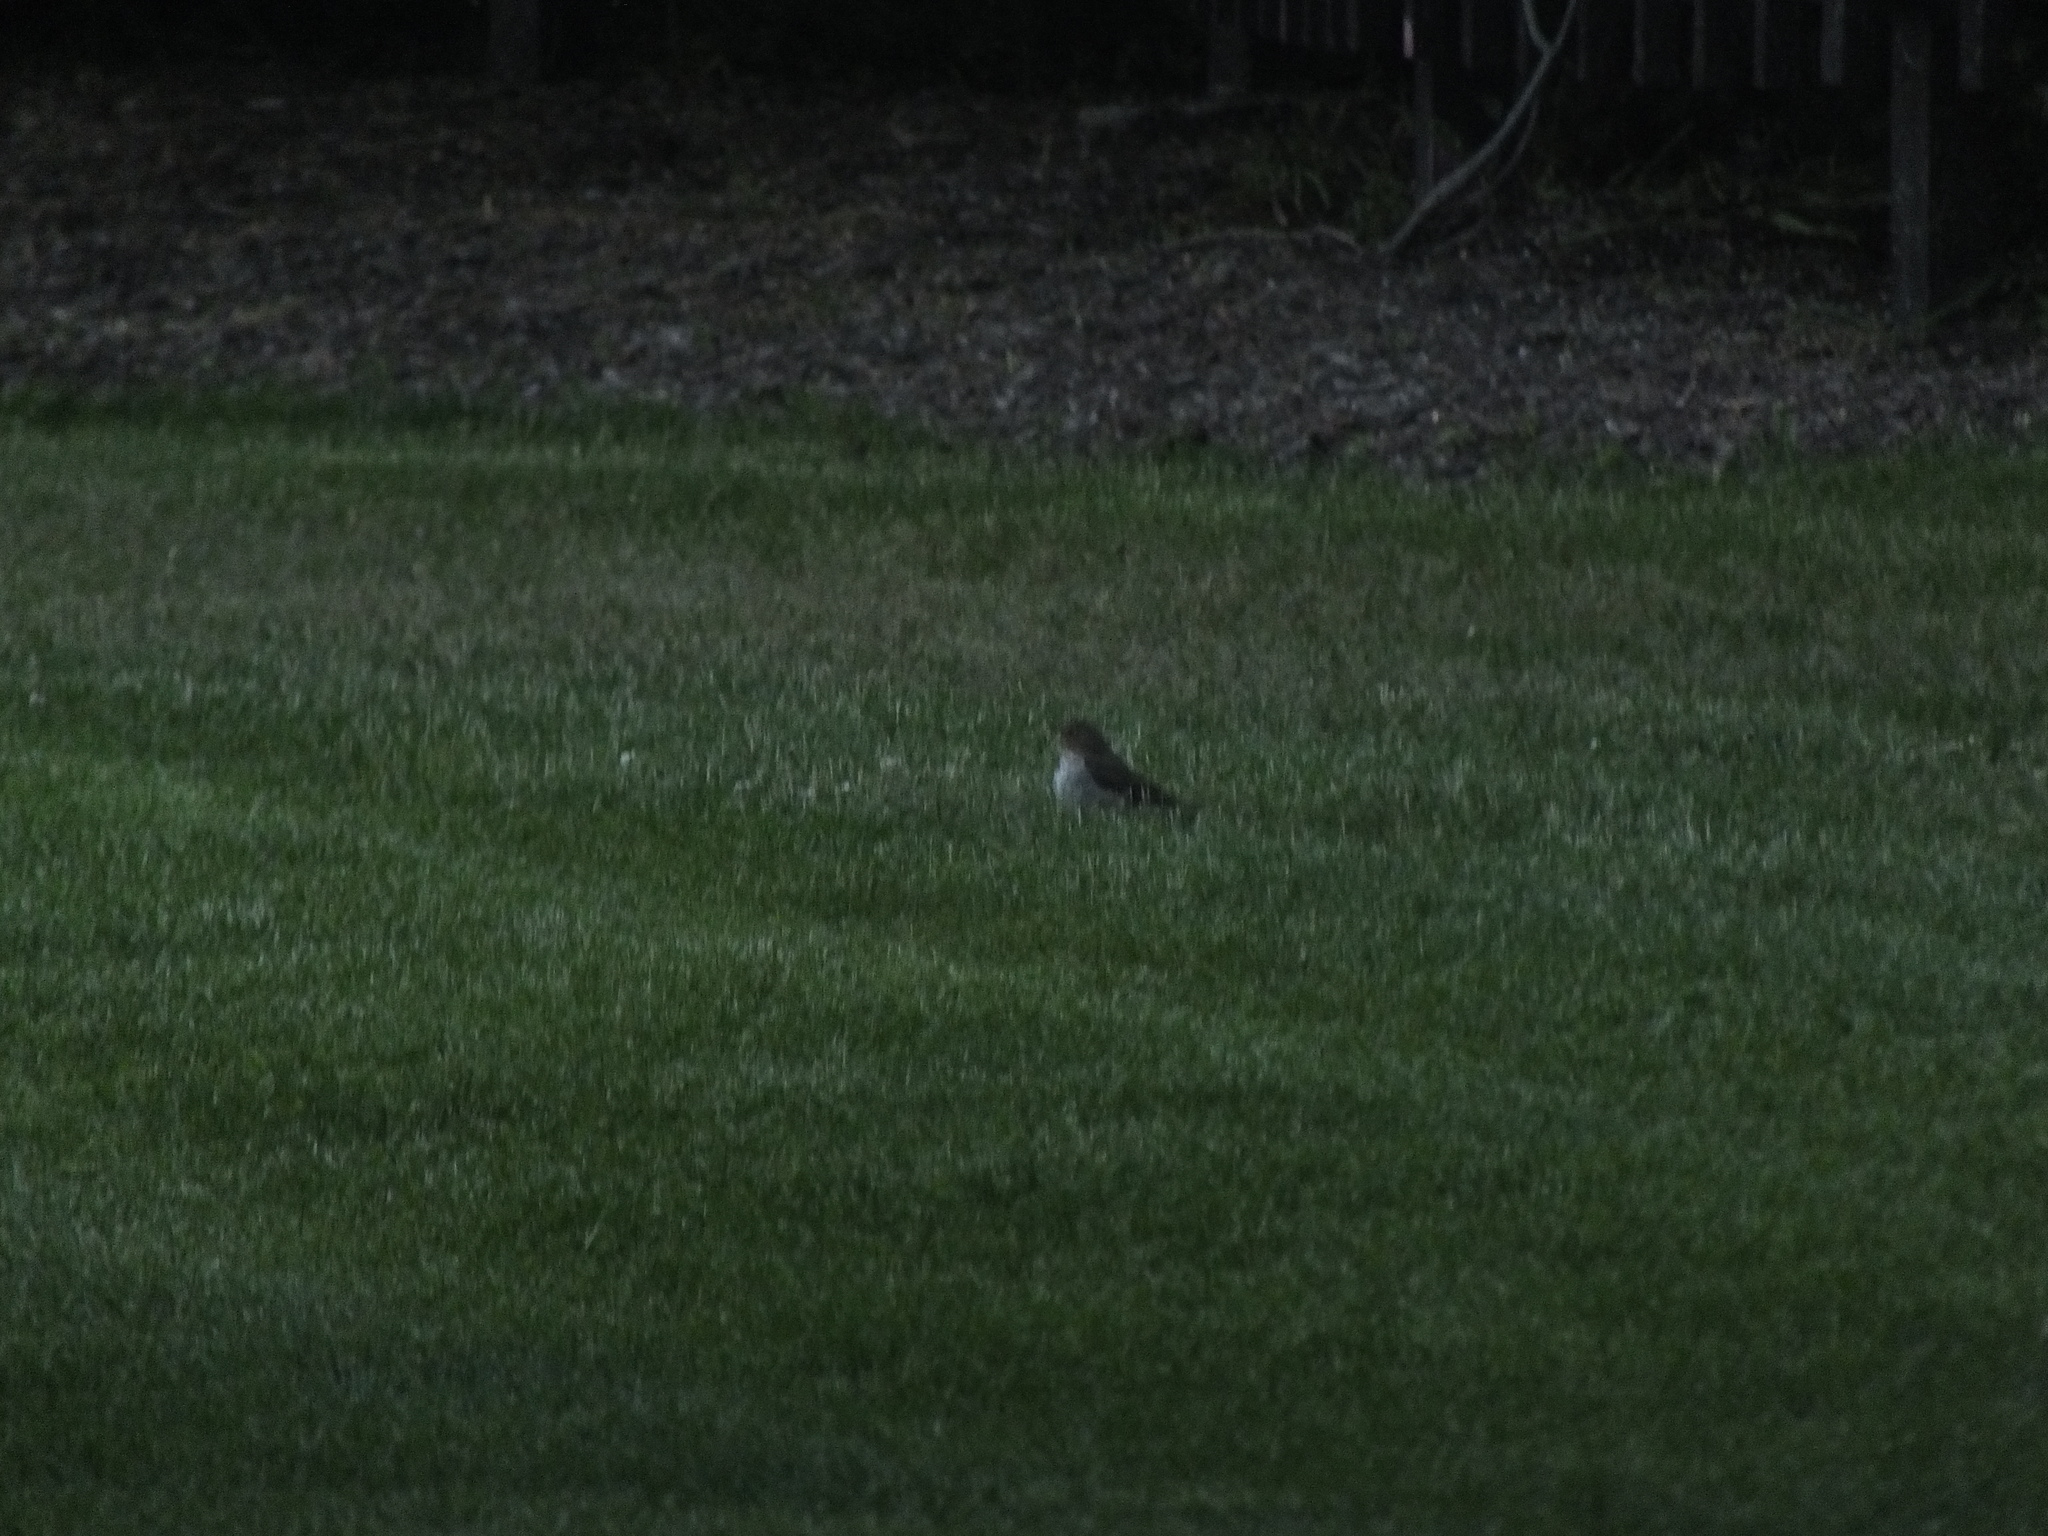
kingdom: Animalia
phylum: Chordata
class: Aves
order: Passeriformes
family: Turdidae
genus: Catharus
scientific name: Catharus ustulatus
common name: Swainson's thrush
